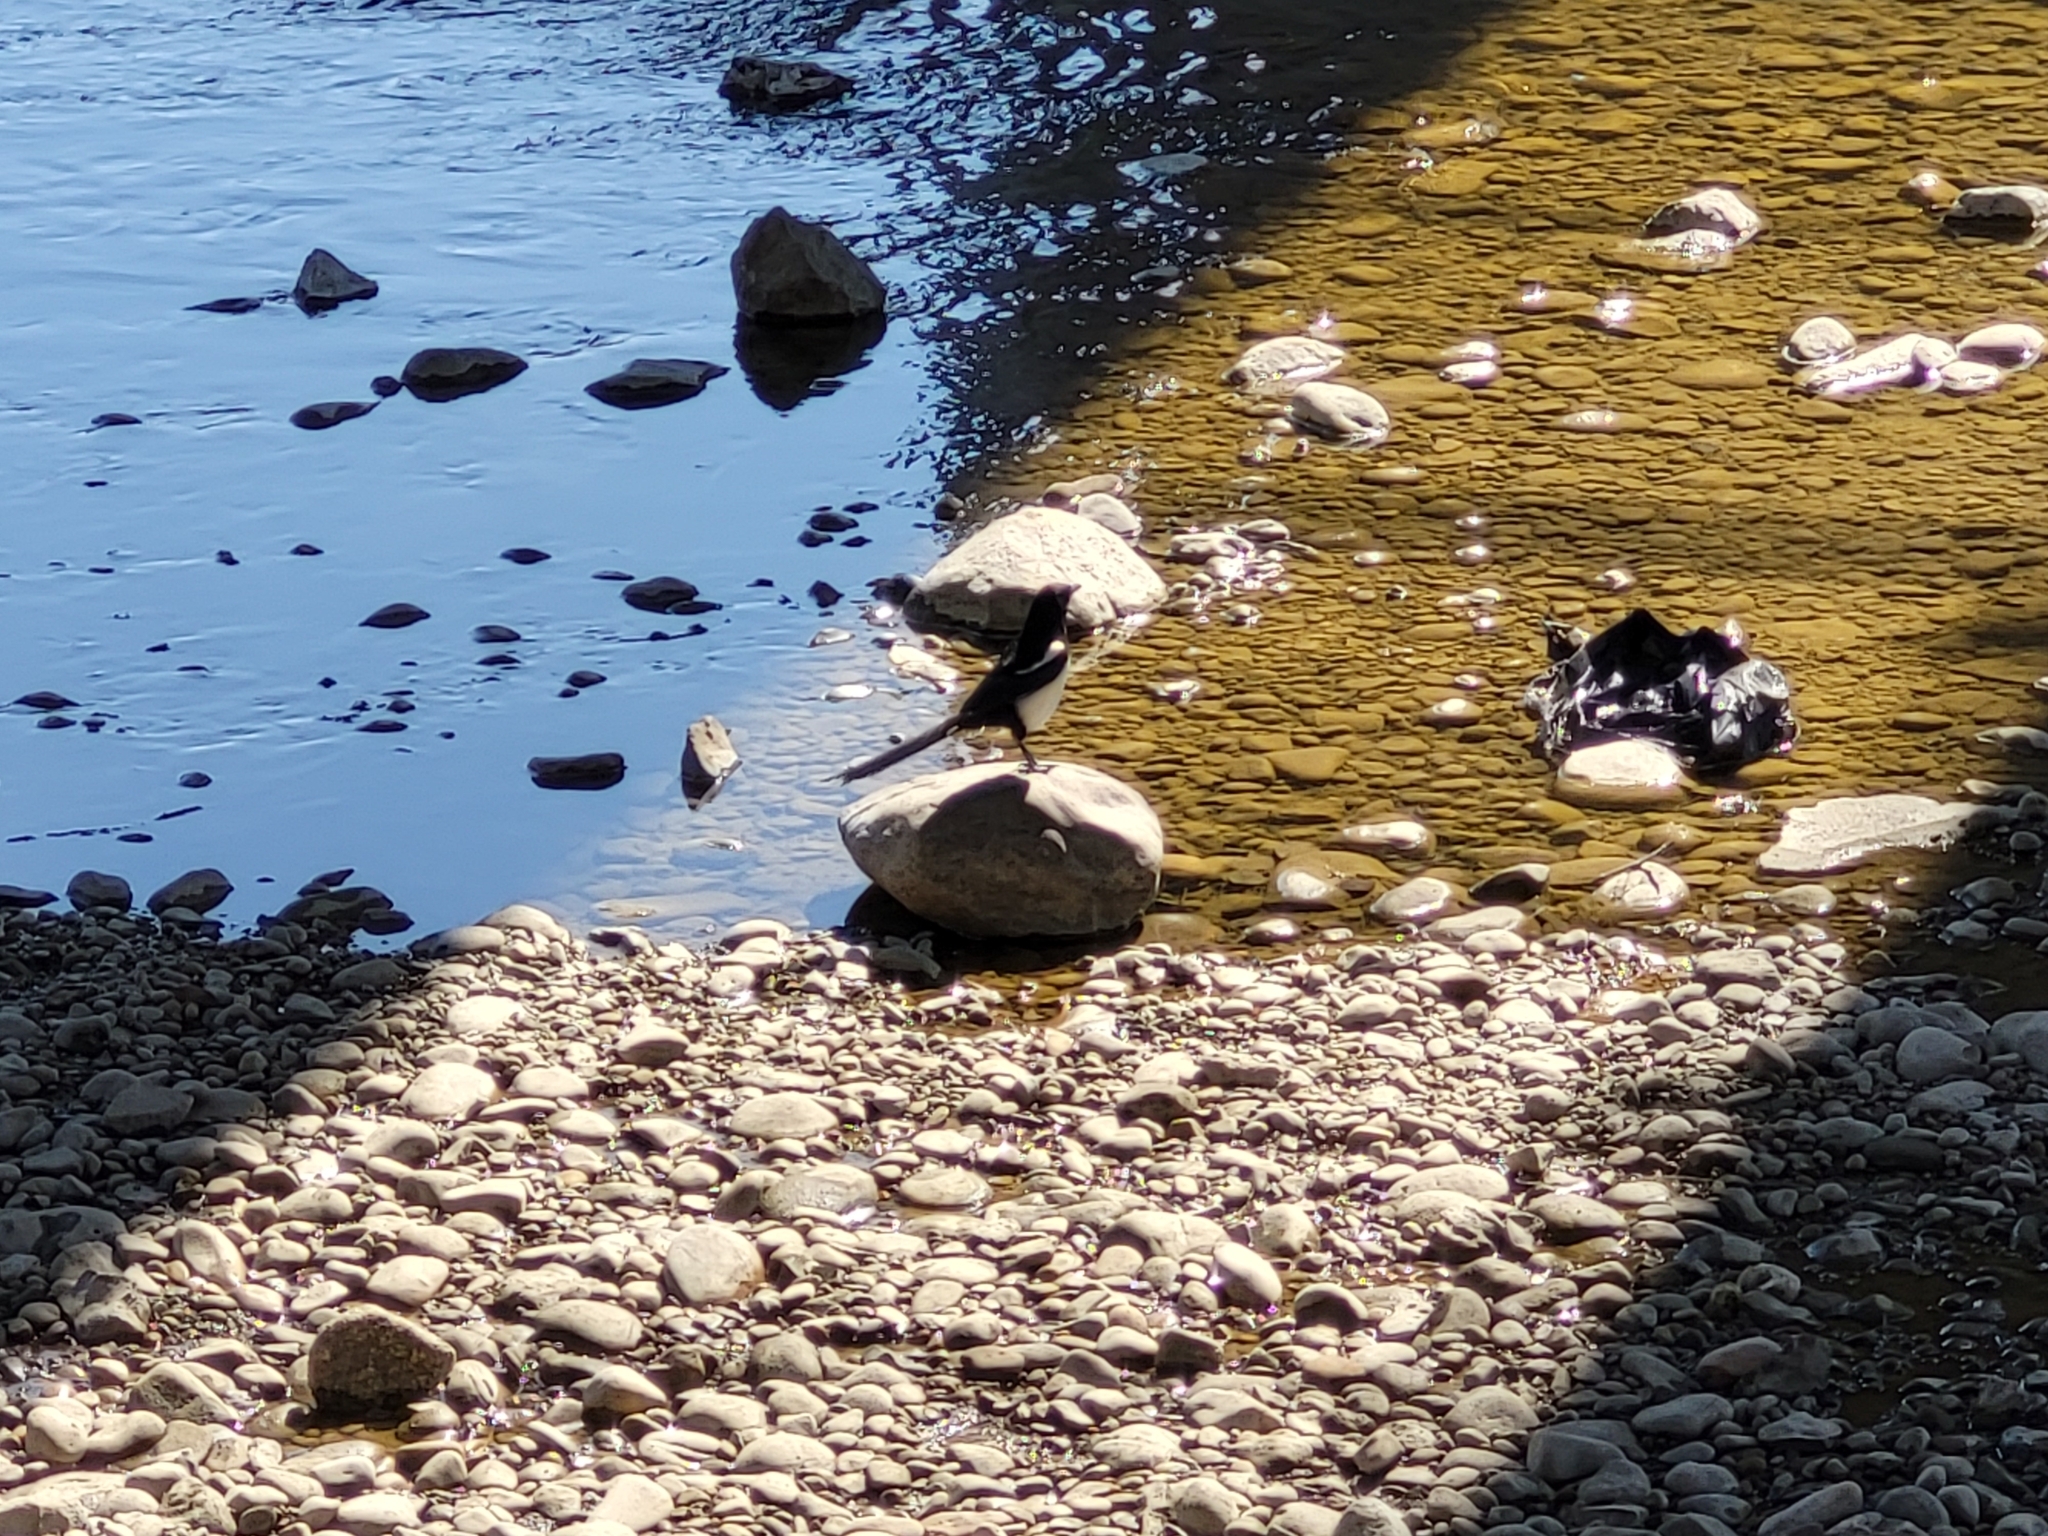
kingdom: Animalia
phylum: Chordata
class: Aves
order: Passeriformes
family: Corvidae
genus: Pica
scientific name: Pica hudsonia
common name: Black-billed magpie
